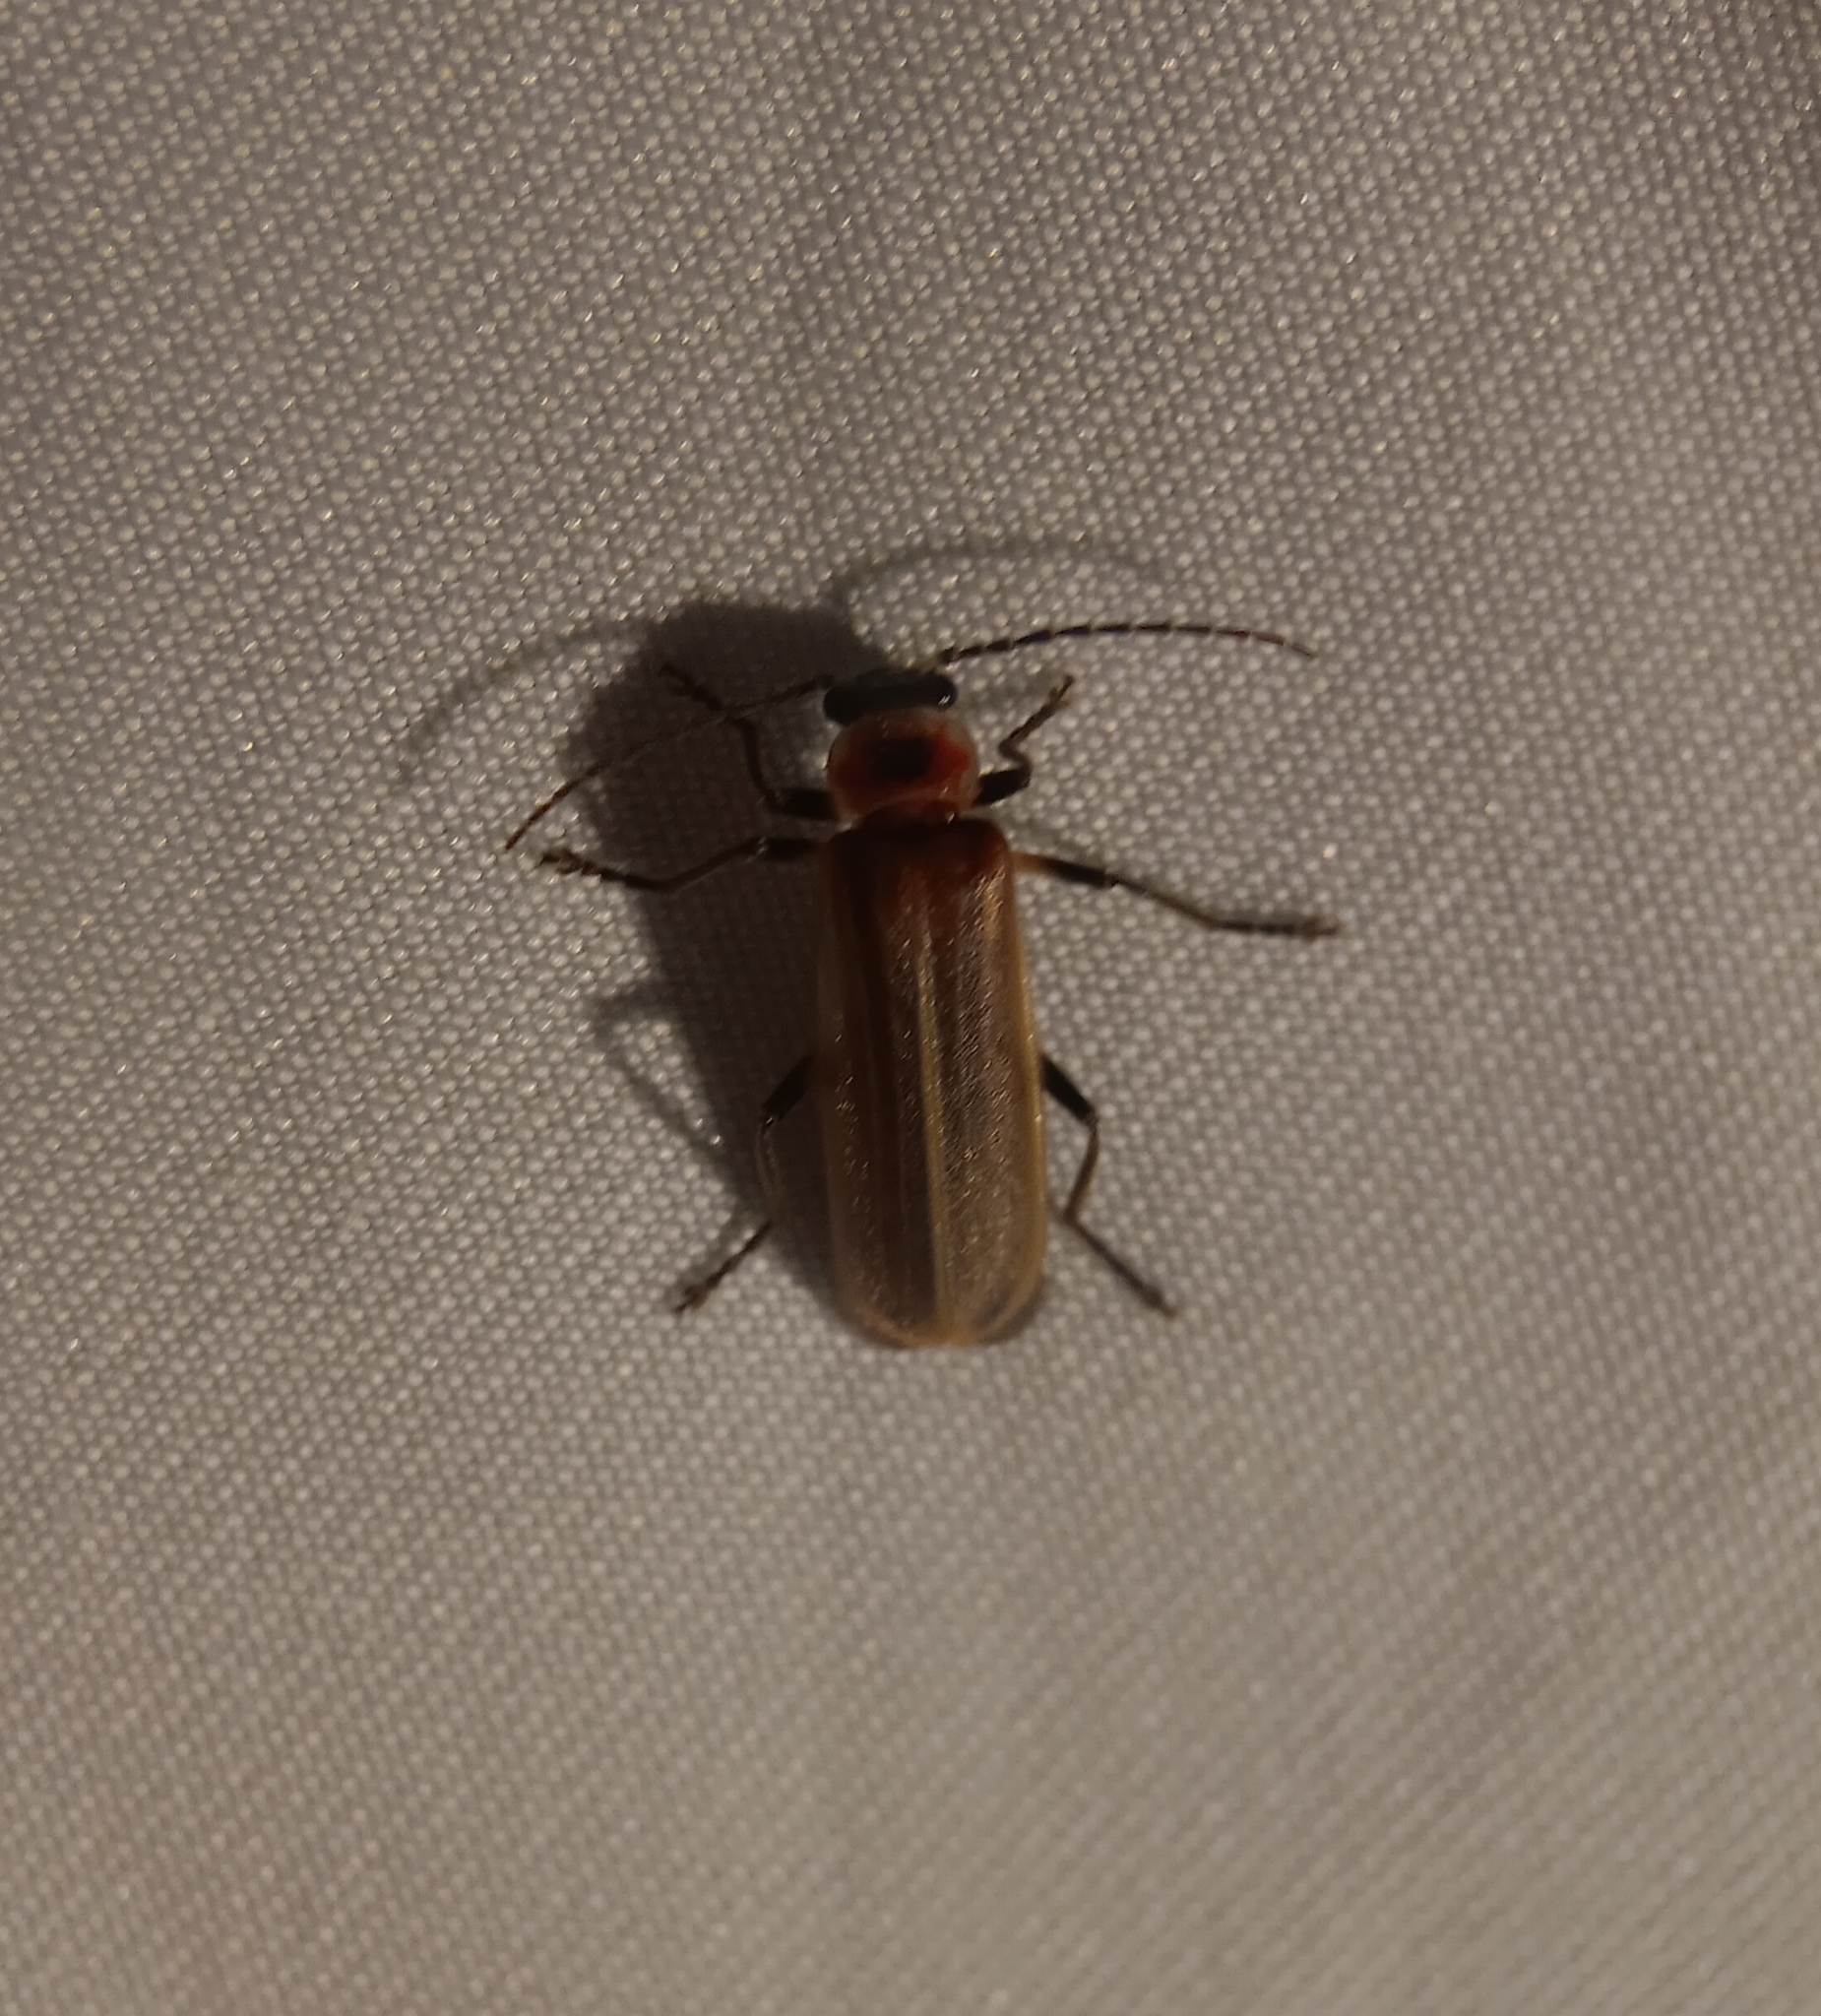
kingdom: Animalia
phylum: Arthropoda
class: Insecta
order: Coleoptera
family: Cantharidae
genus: Podabrus
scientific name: Podabrus appendiculatus
